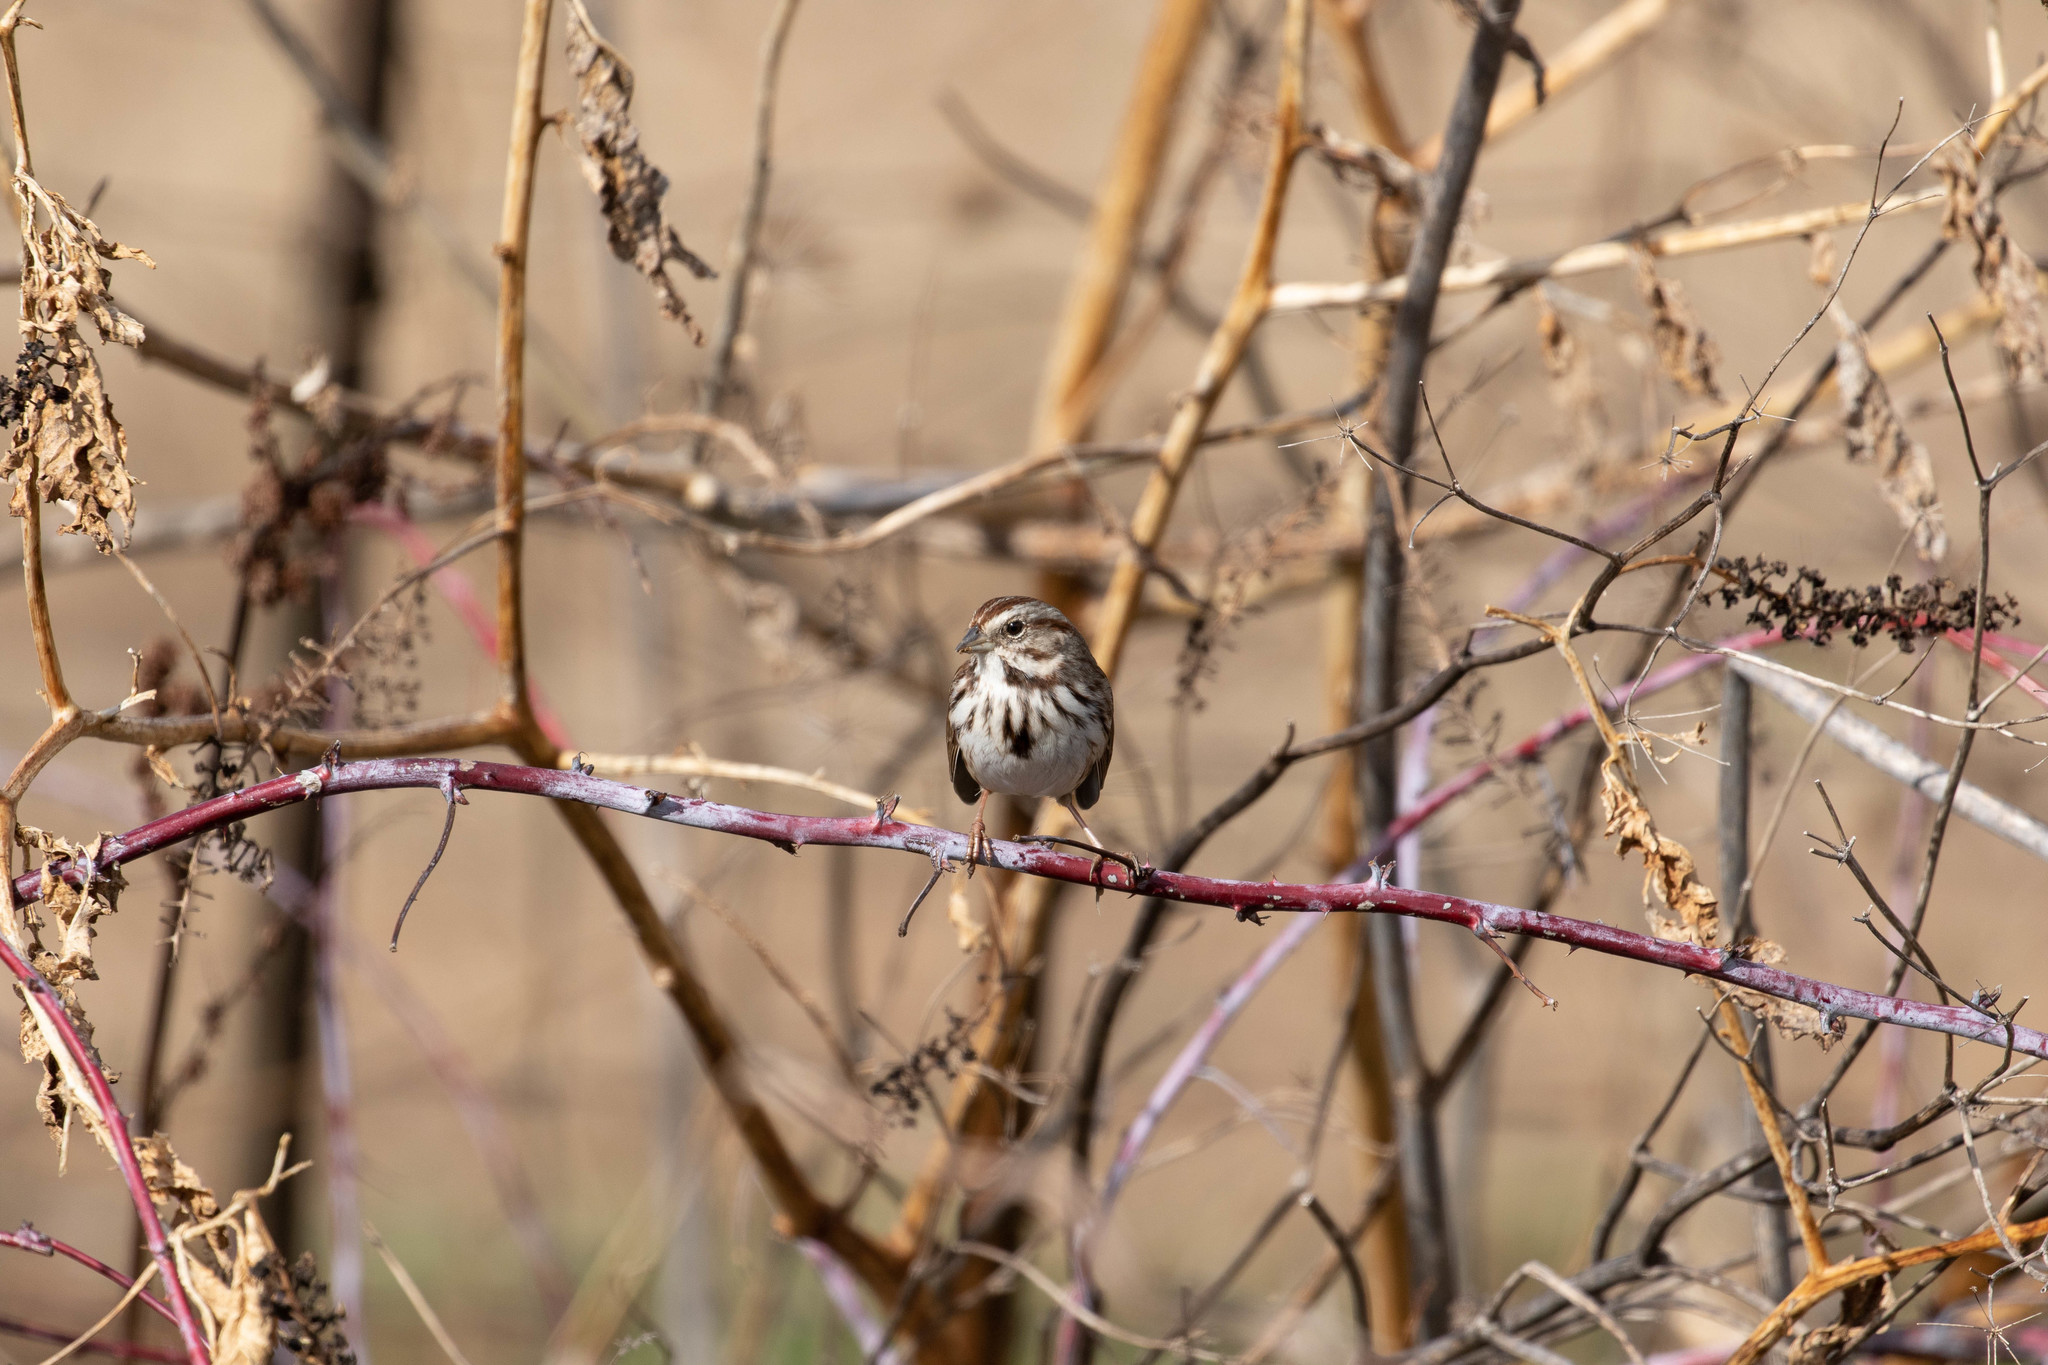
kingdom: Animalia
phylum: Chordata
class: Aves
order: Passeriformes
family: Passerellidae
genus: Melospiza
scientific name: Melospiza melodia
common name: Song sparrow
